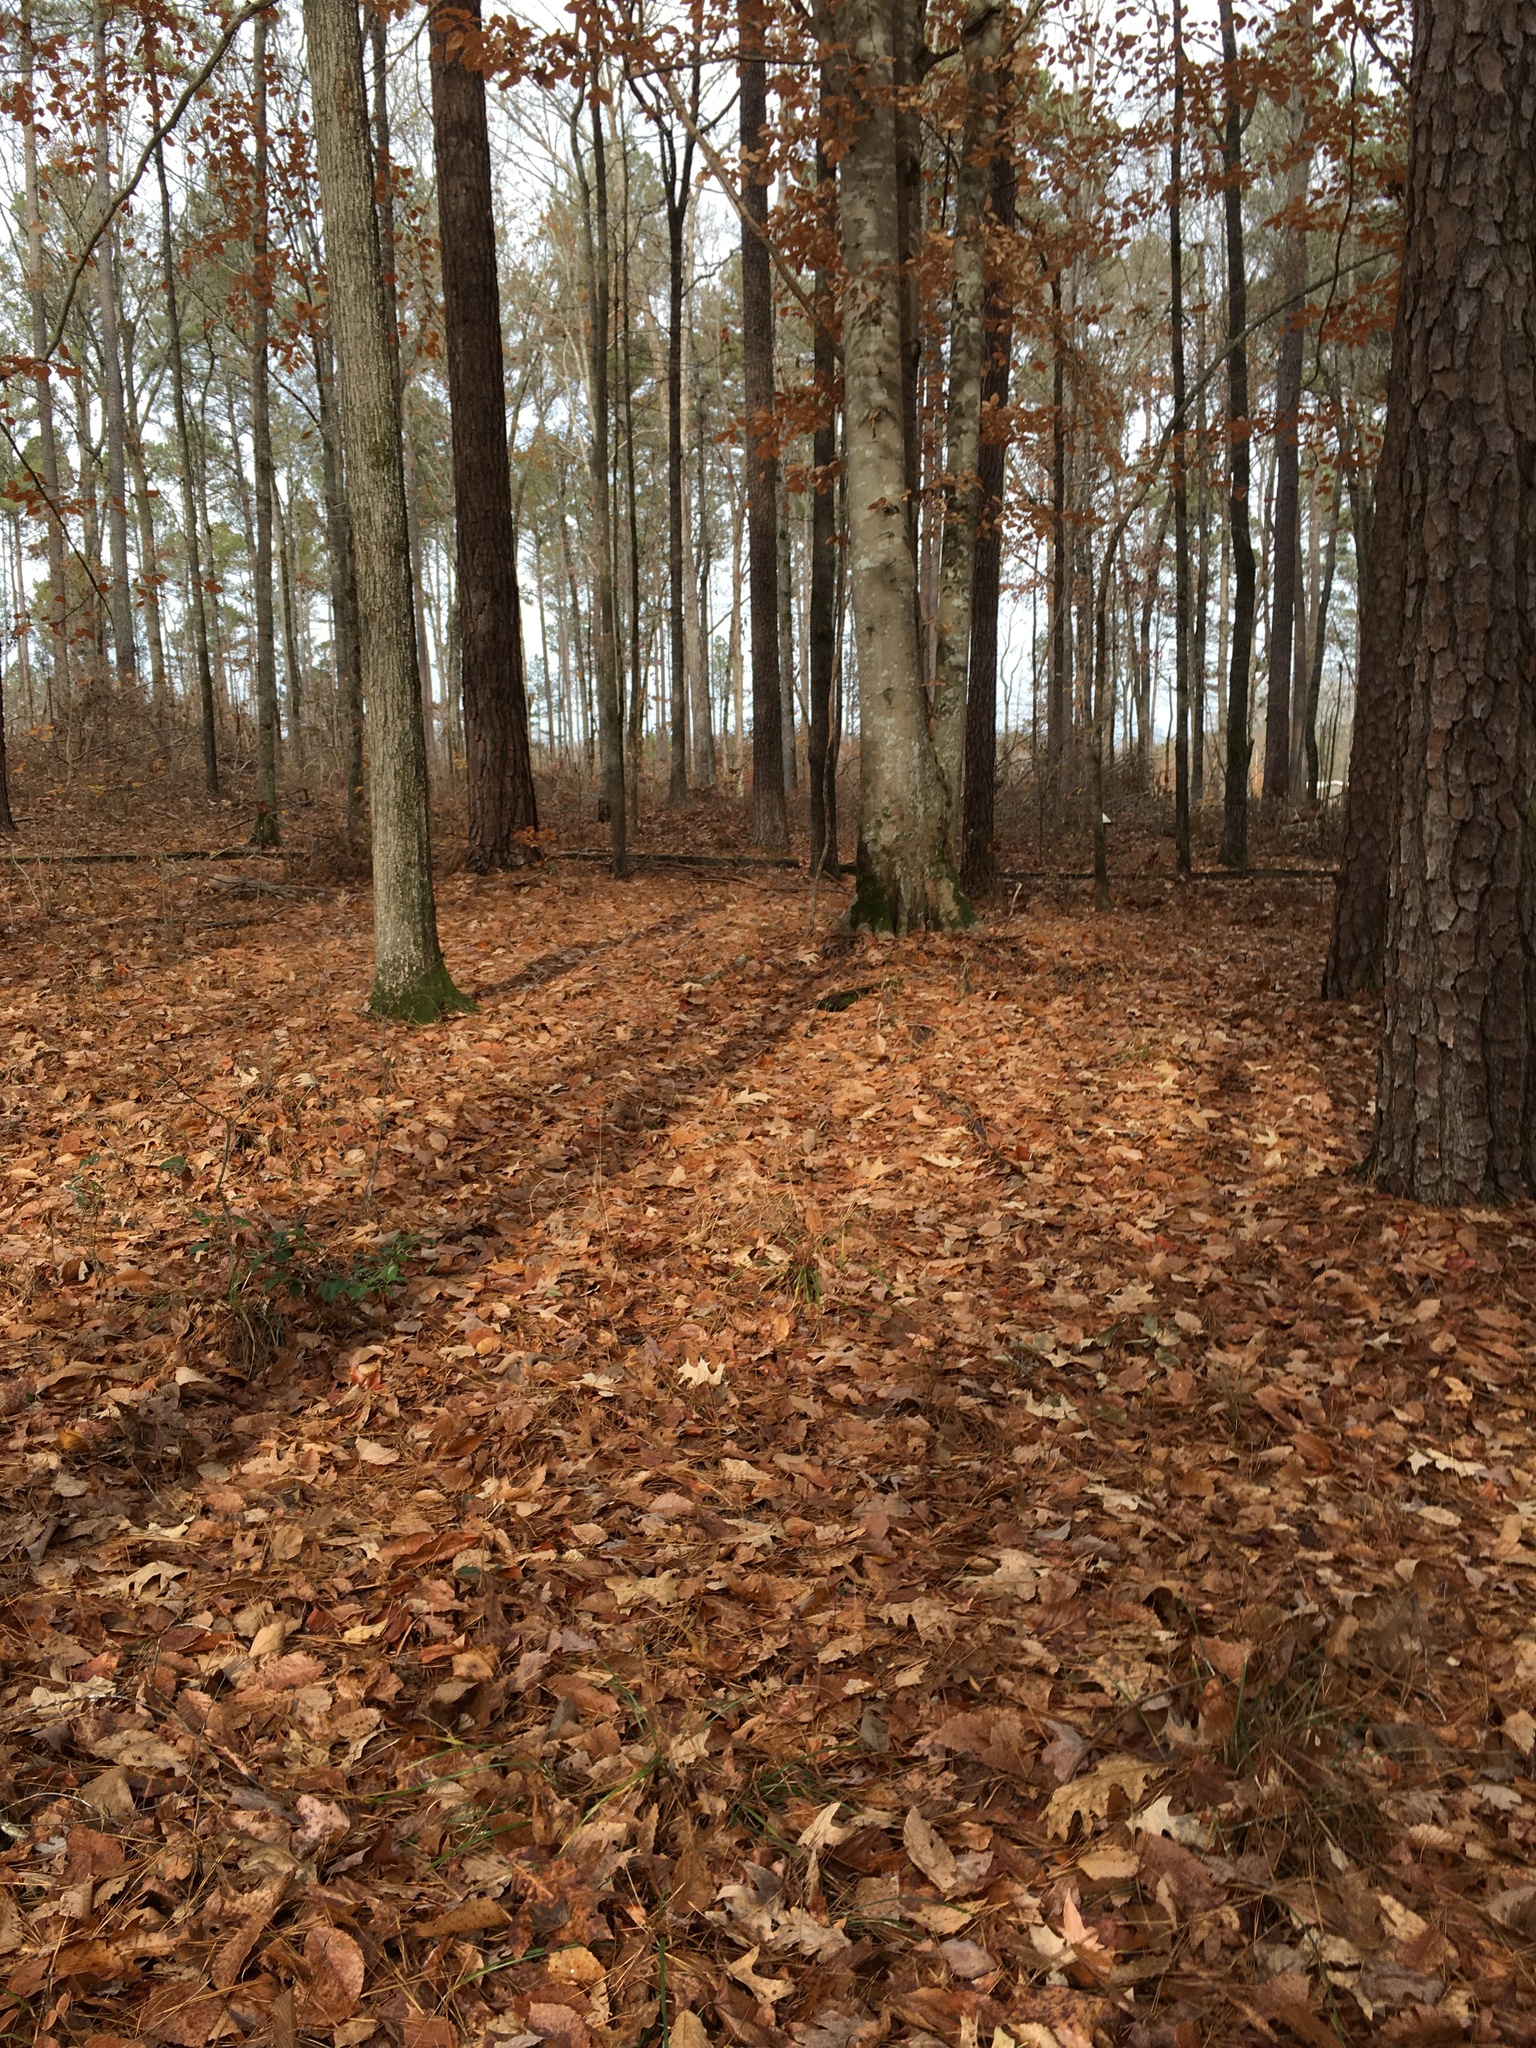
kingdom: Plantae
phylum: Tracheophyta
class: Magnoliopsida
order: Fagales
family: Fagaceae
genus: Fagus
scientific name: Fagus grandifolia
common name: American beech
